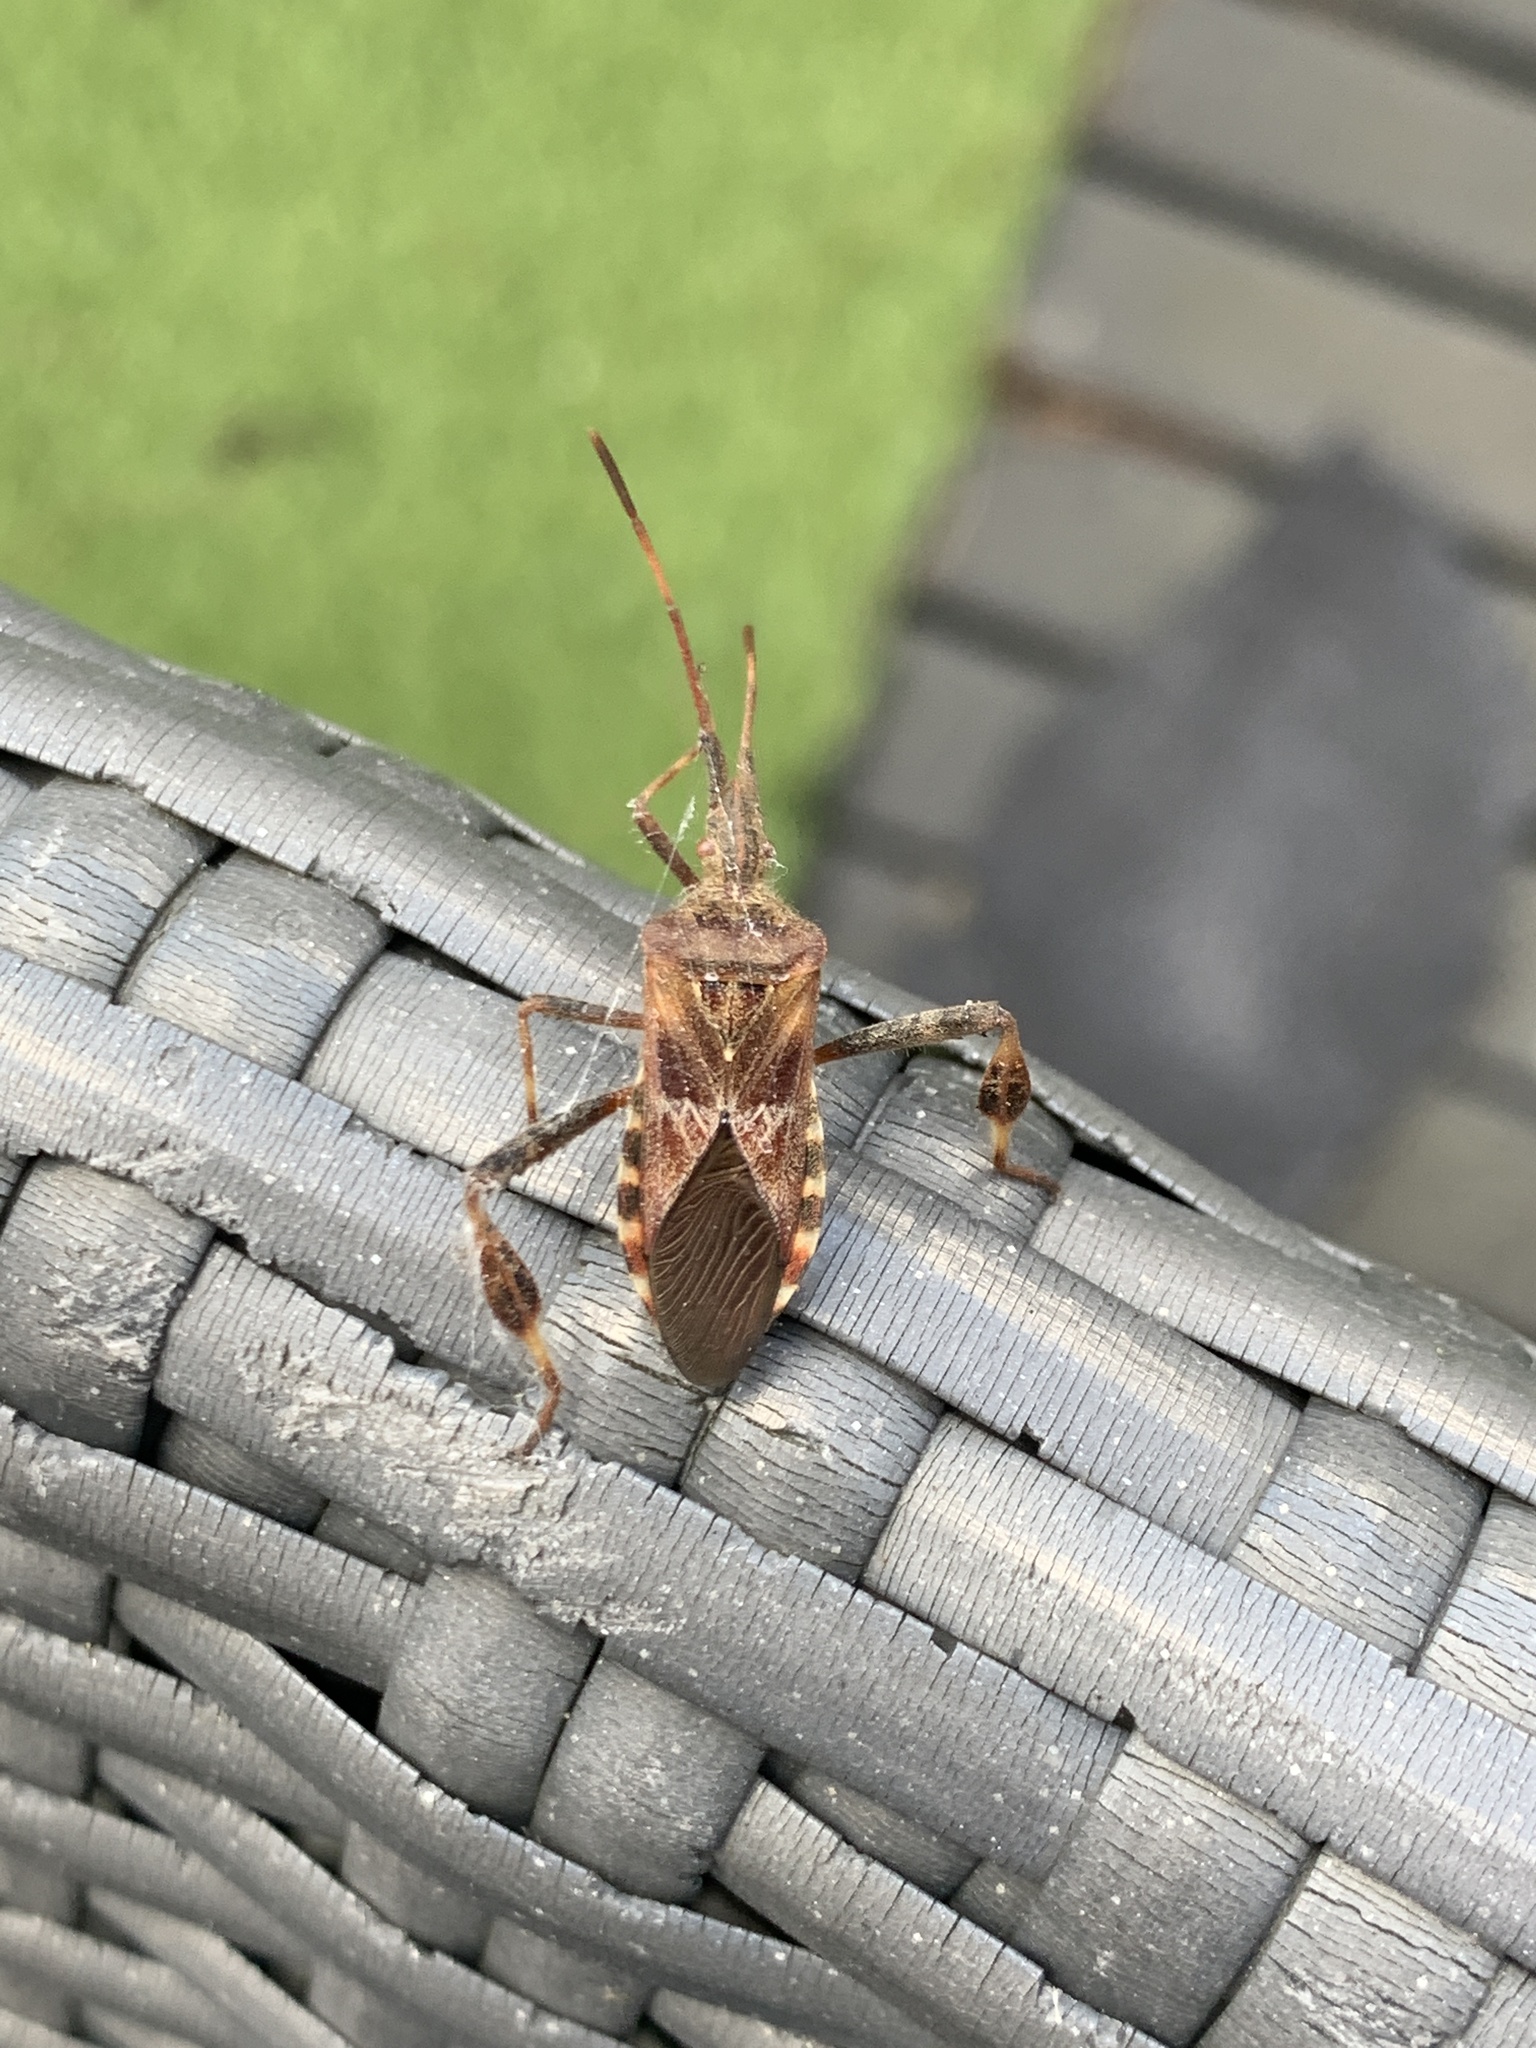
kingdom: Animalia
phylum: Arthropoda
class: Insecta
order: Hemiptera
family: Coreidae
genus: Leptoglossus
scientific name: Leptoglossus occidentalis
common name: Western conifer-seed bug
